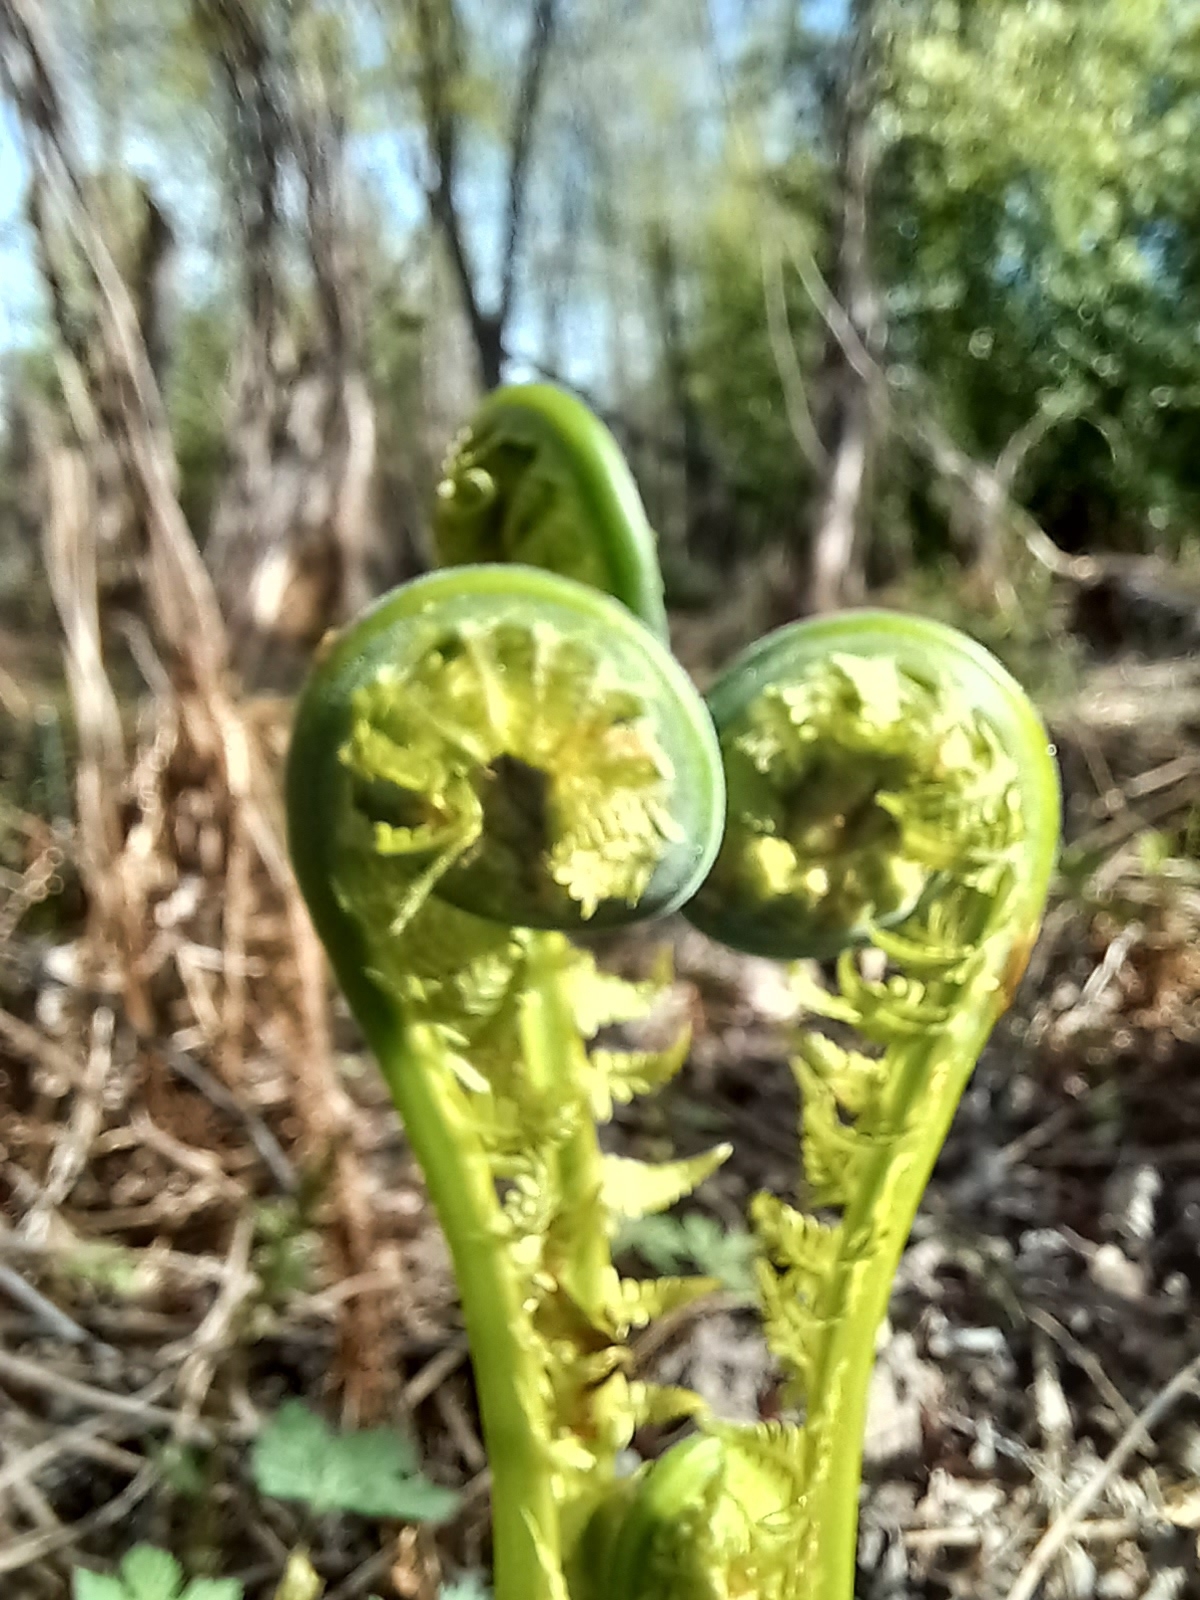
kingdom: Plantae
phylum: Tracheophyta
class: Polypodiopsida
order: Polypodiales
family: Onocleaceae
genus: Matteuccia
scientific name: Matteuccia struthiopteris
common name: Ostrich fern
